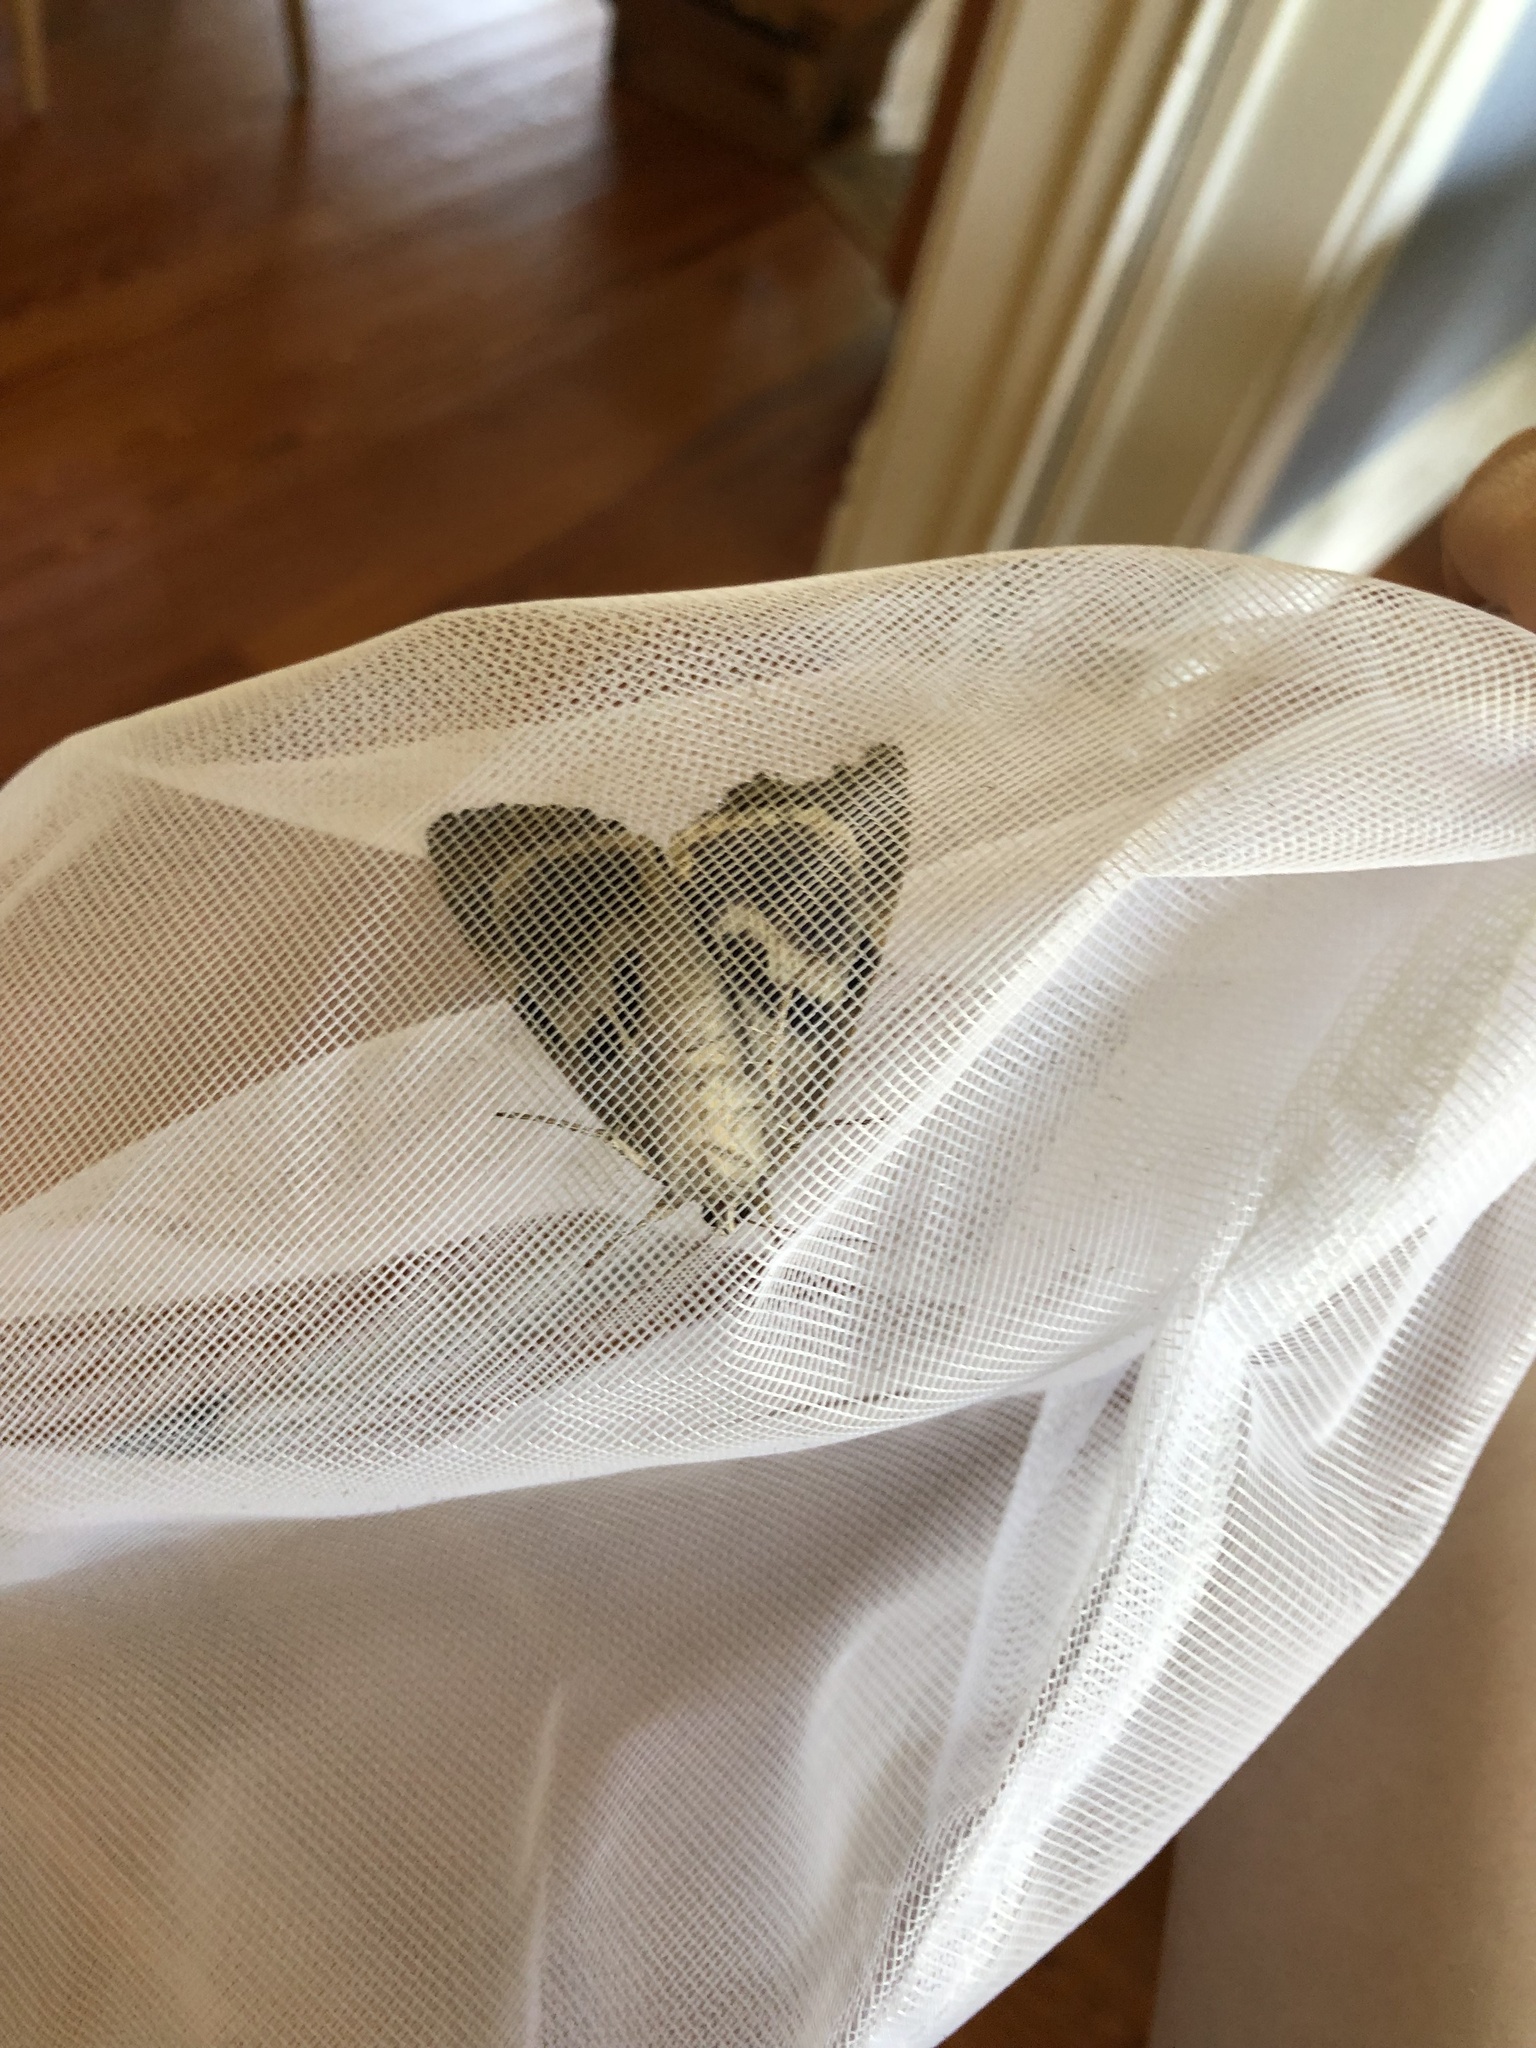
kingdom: Animalia
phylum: Arthropoda
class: Insecta
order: Lepidoptera
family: Erebidae
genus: Catocala
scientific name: Catocala agrippina
